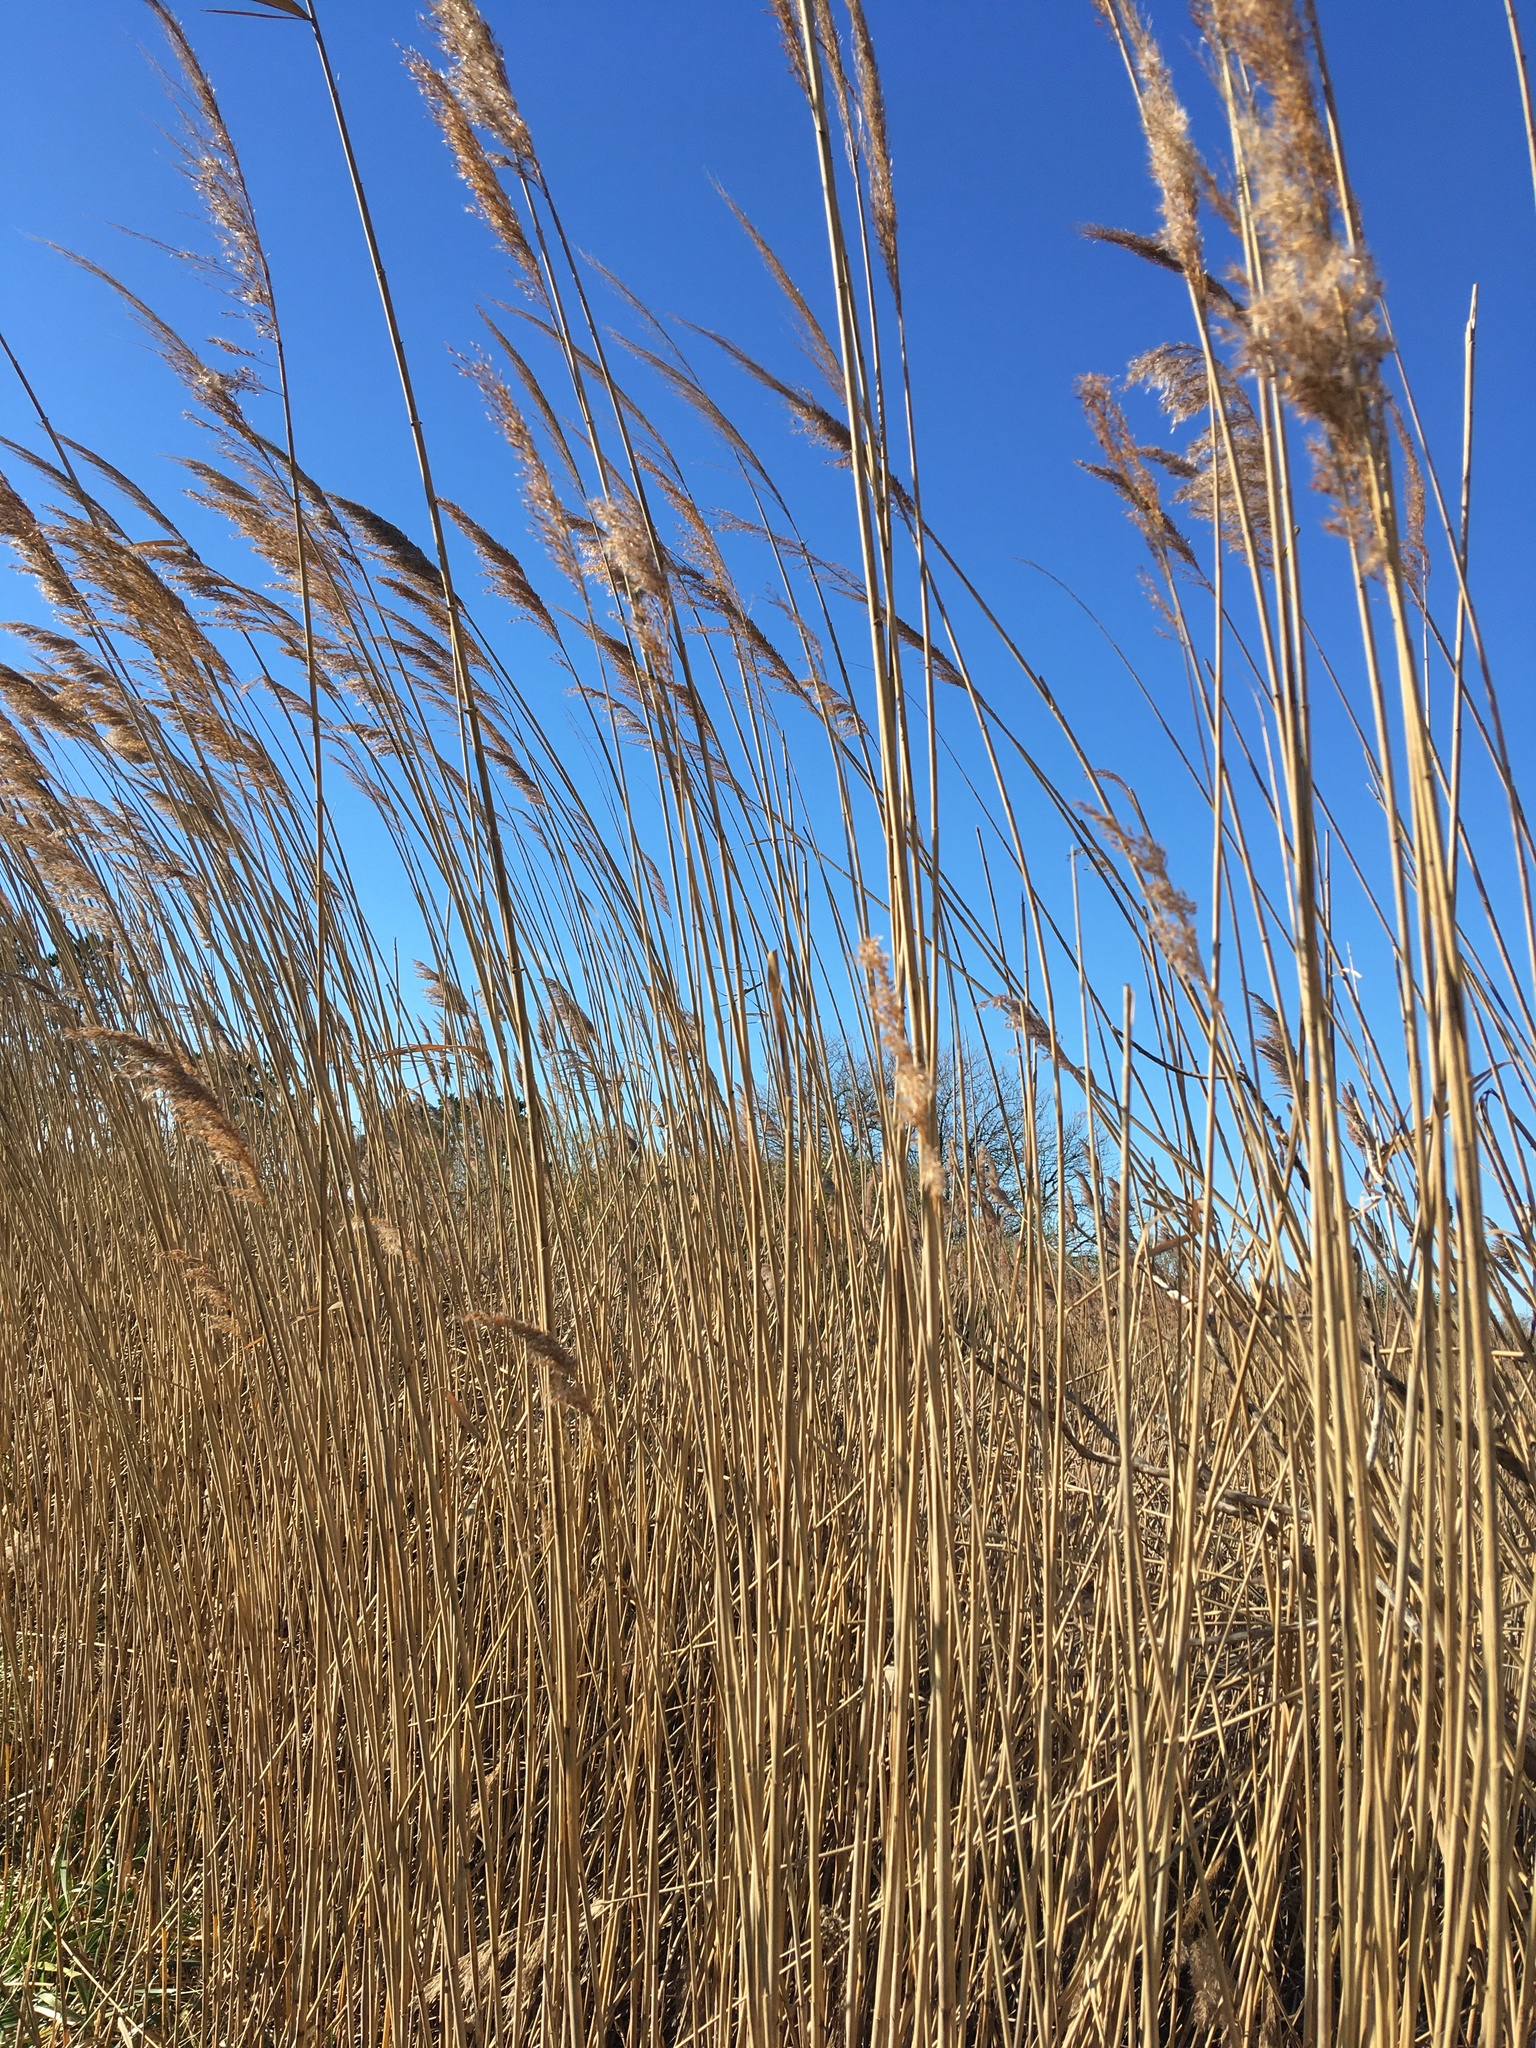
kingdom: Plantae
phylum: Tracheophyta
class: Liliopsida
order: Poales
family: Poaceae
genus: Phragmites
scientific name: Phragmites australis
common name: Common reed
